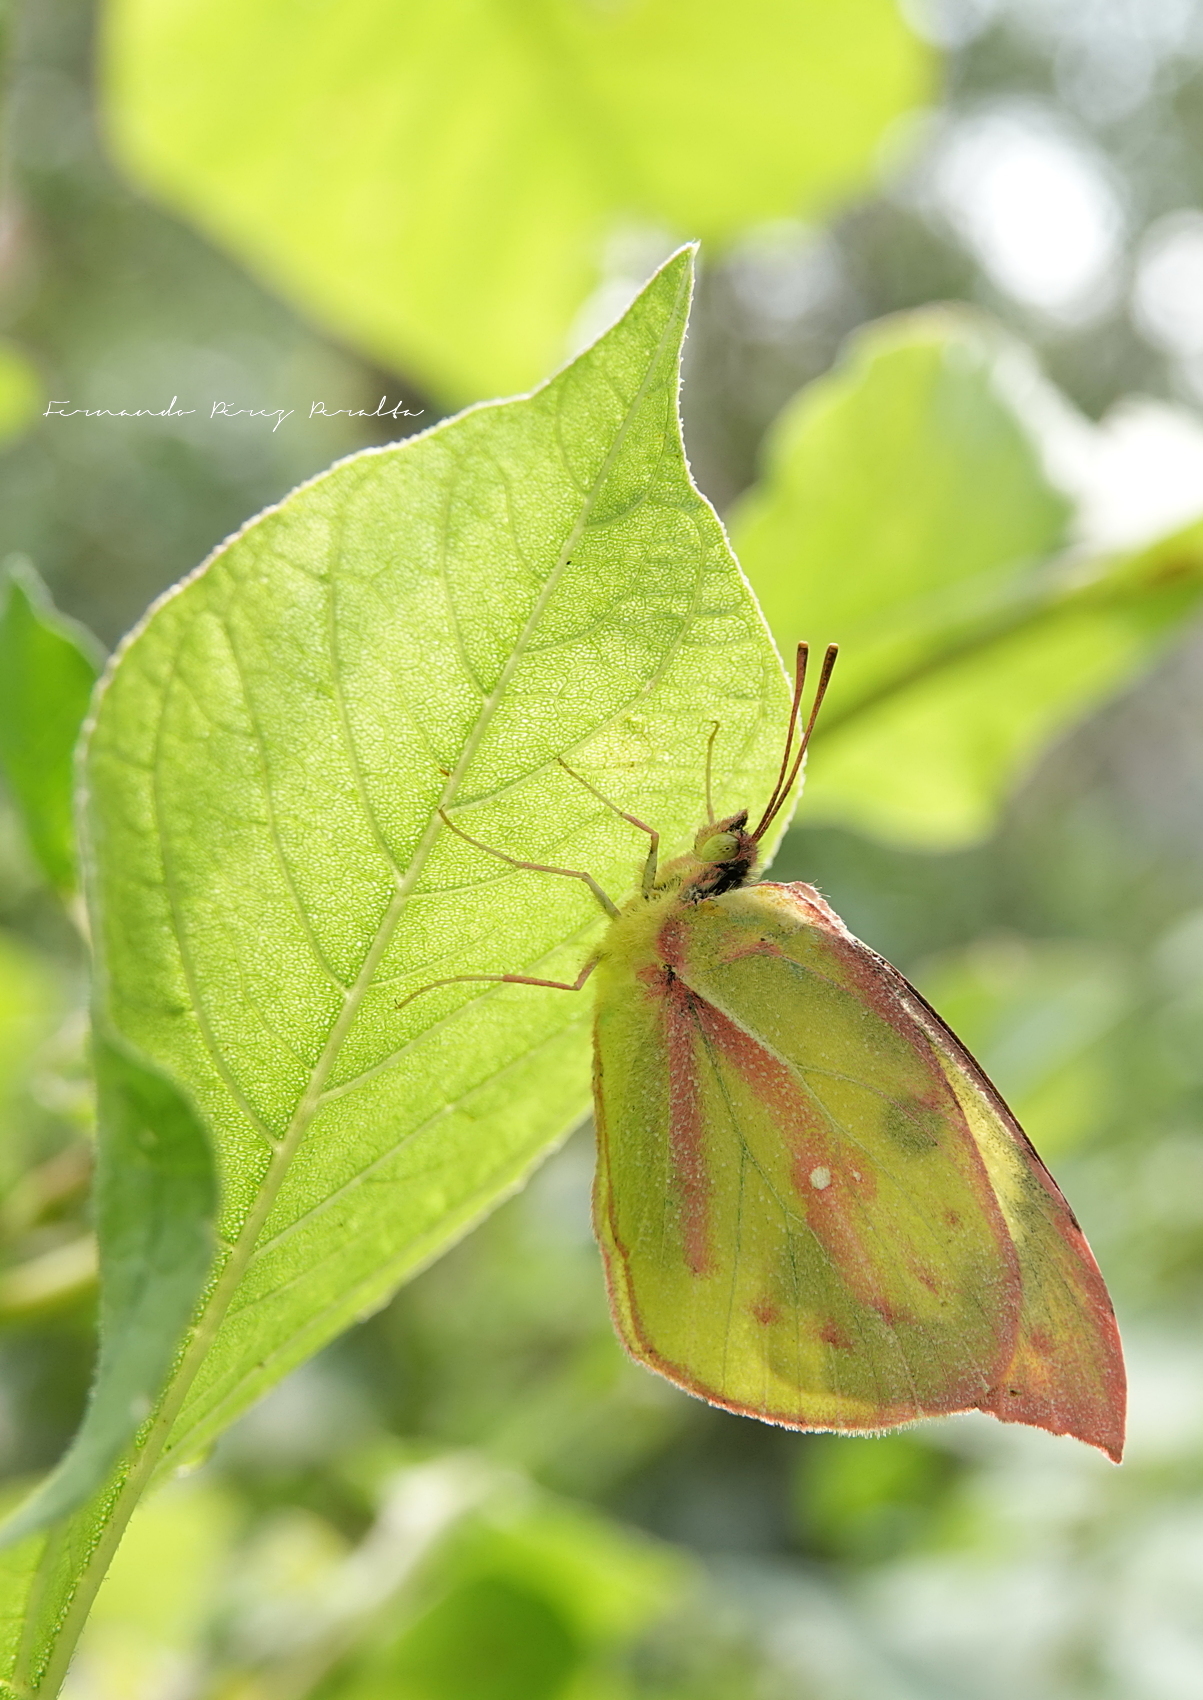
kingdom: Animalia
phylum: Arthropoda
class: Insecta
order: Lepidoptera
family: Pieridae
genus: Zerene
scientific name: Zerene cesonia
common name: Southern dogface
